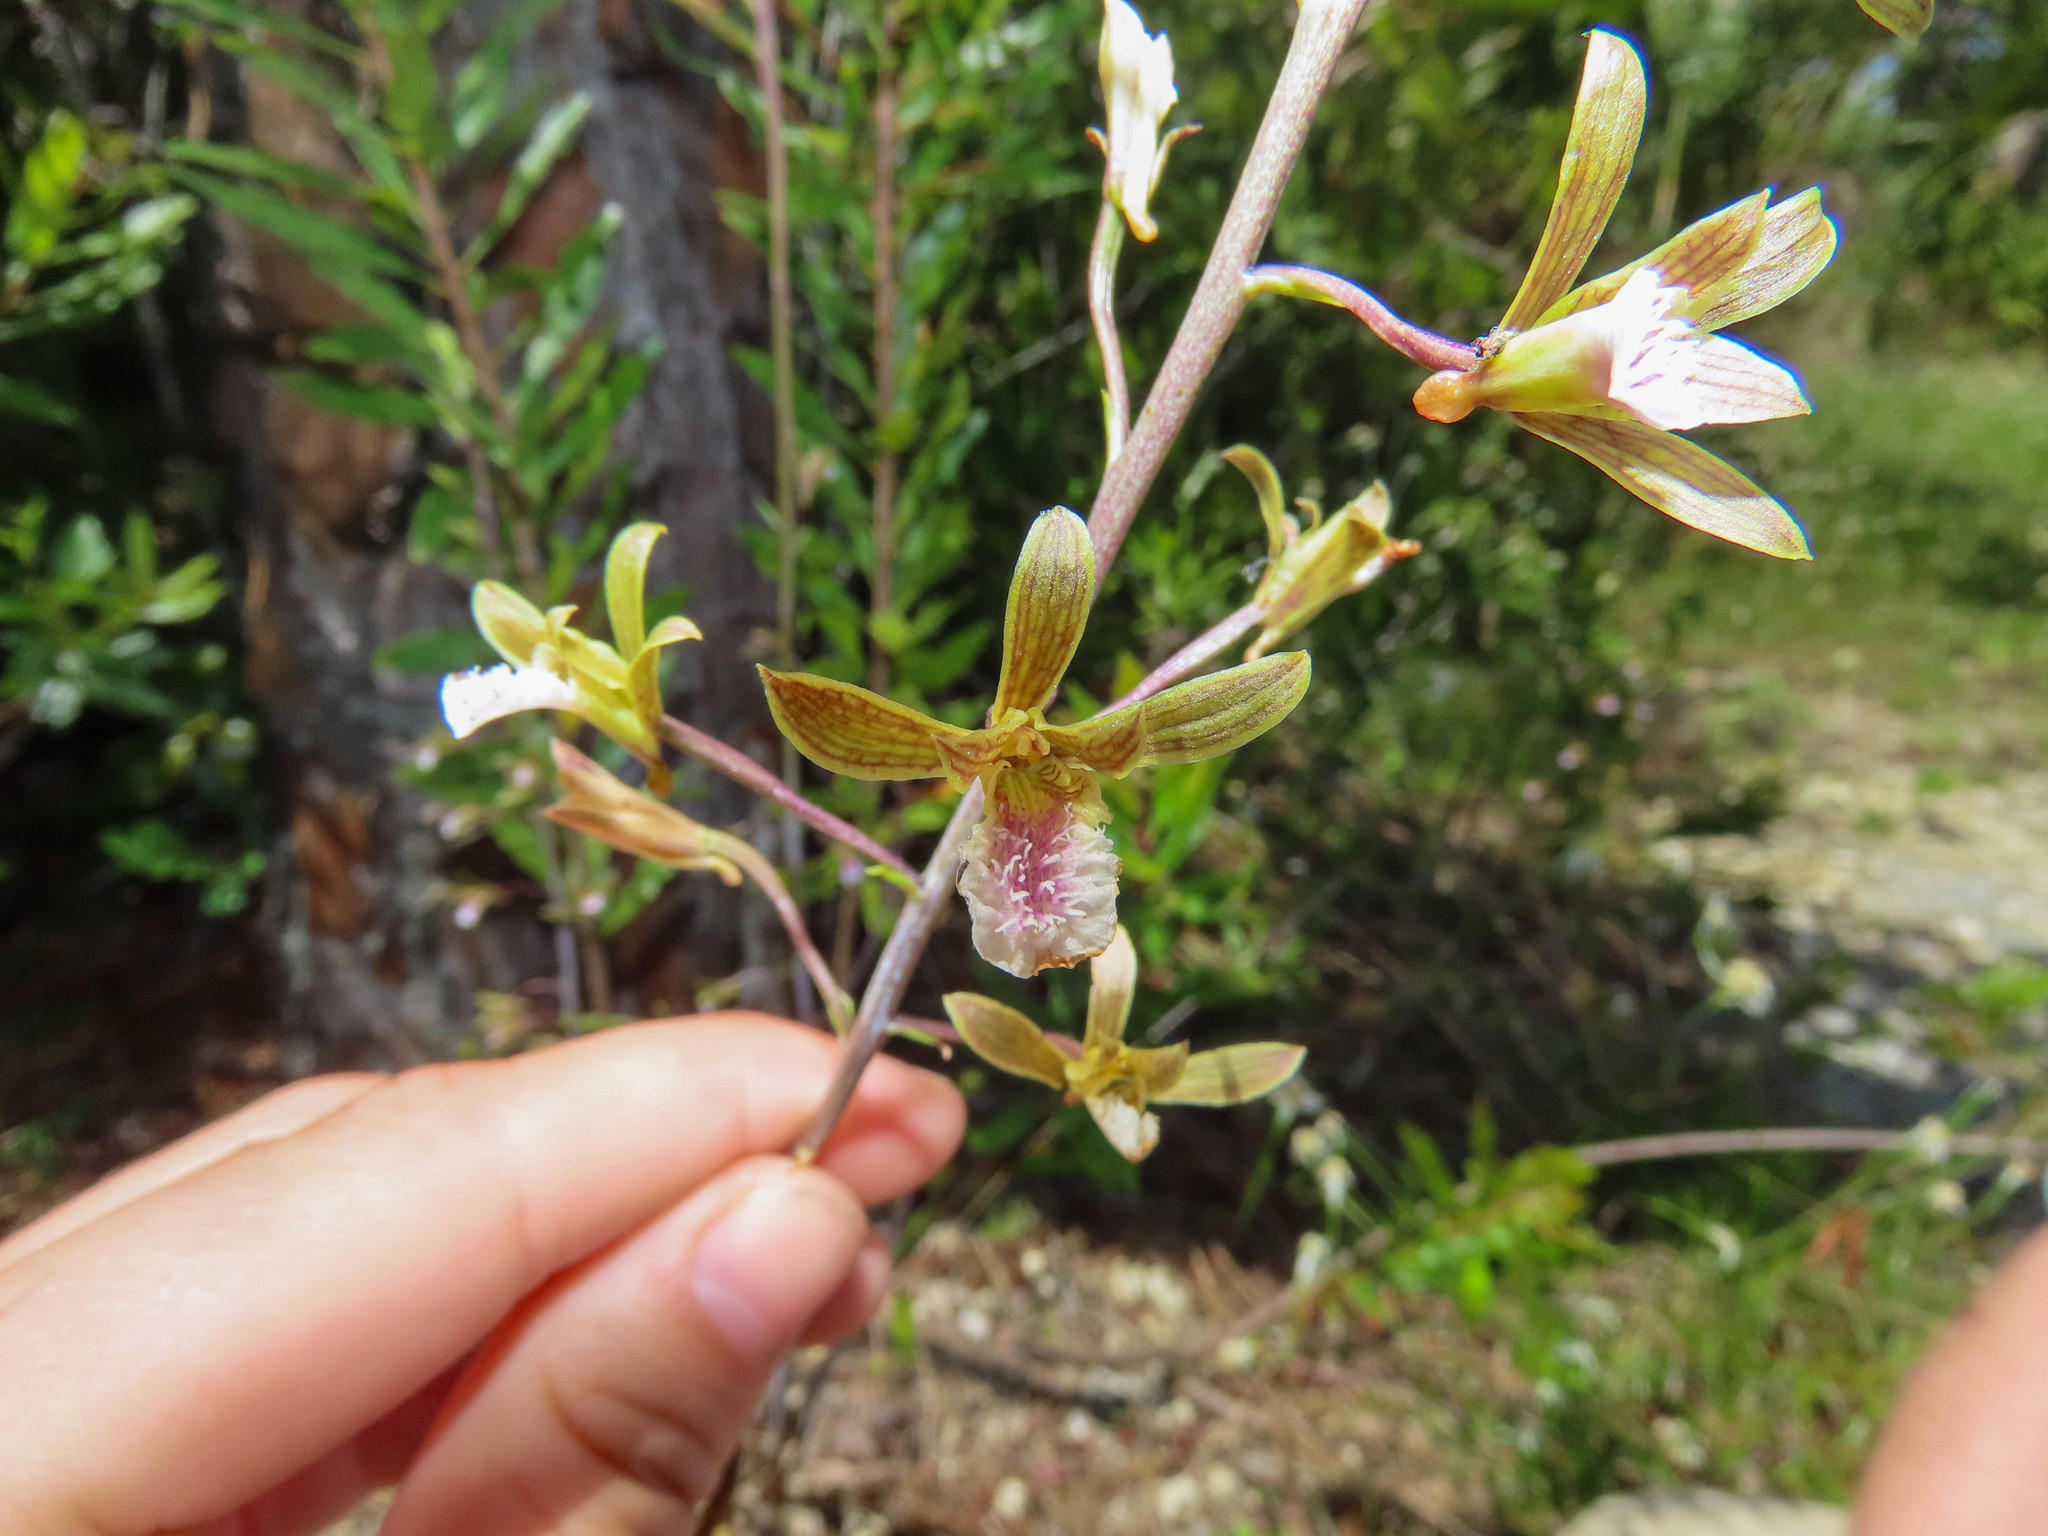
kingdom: Plantae
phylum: Tracheophyta
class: Liliopsida
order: Asparagales
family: Orchidaceae
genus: Eulophia
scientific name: Eulophia graminea
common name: Orchid
